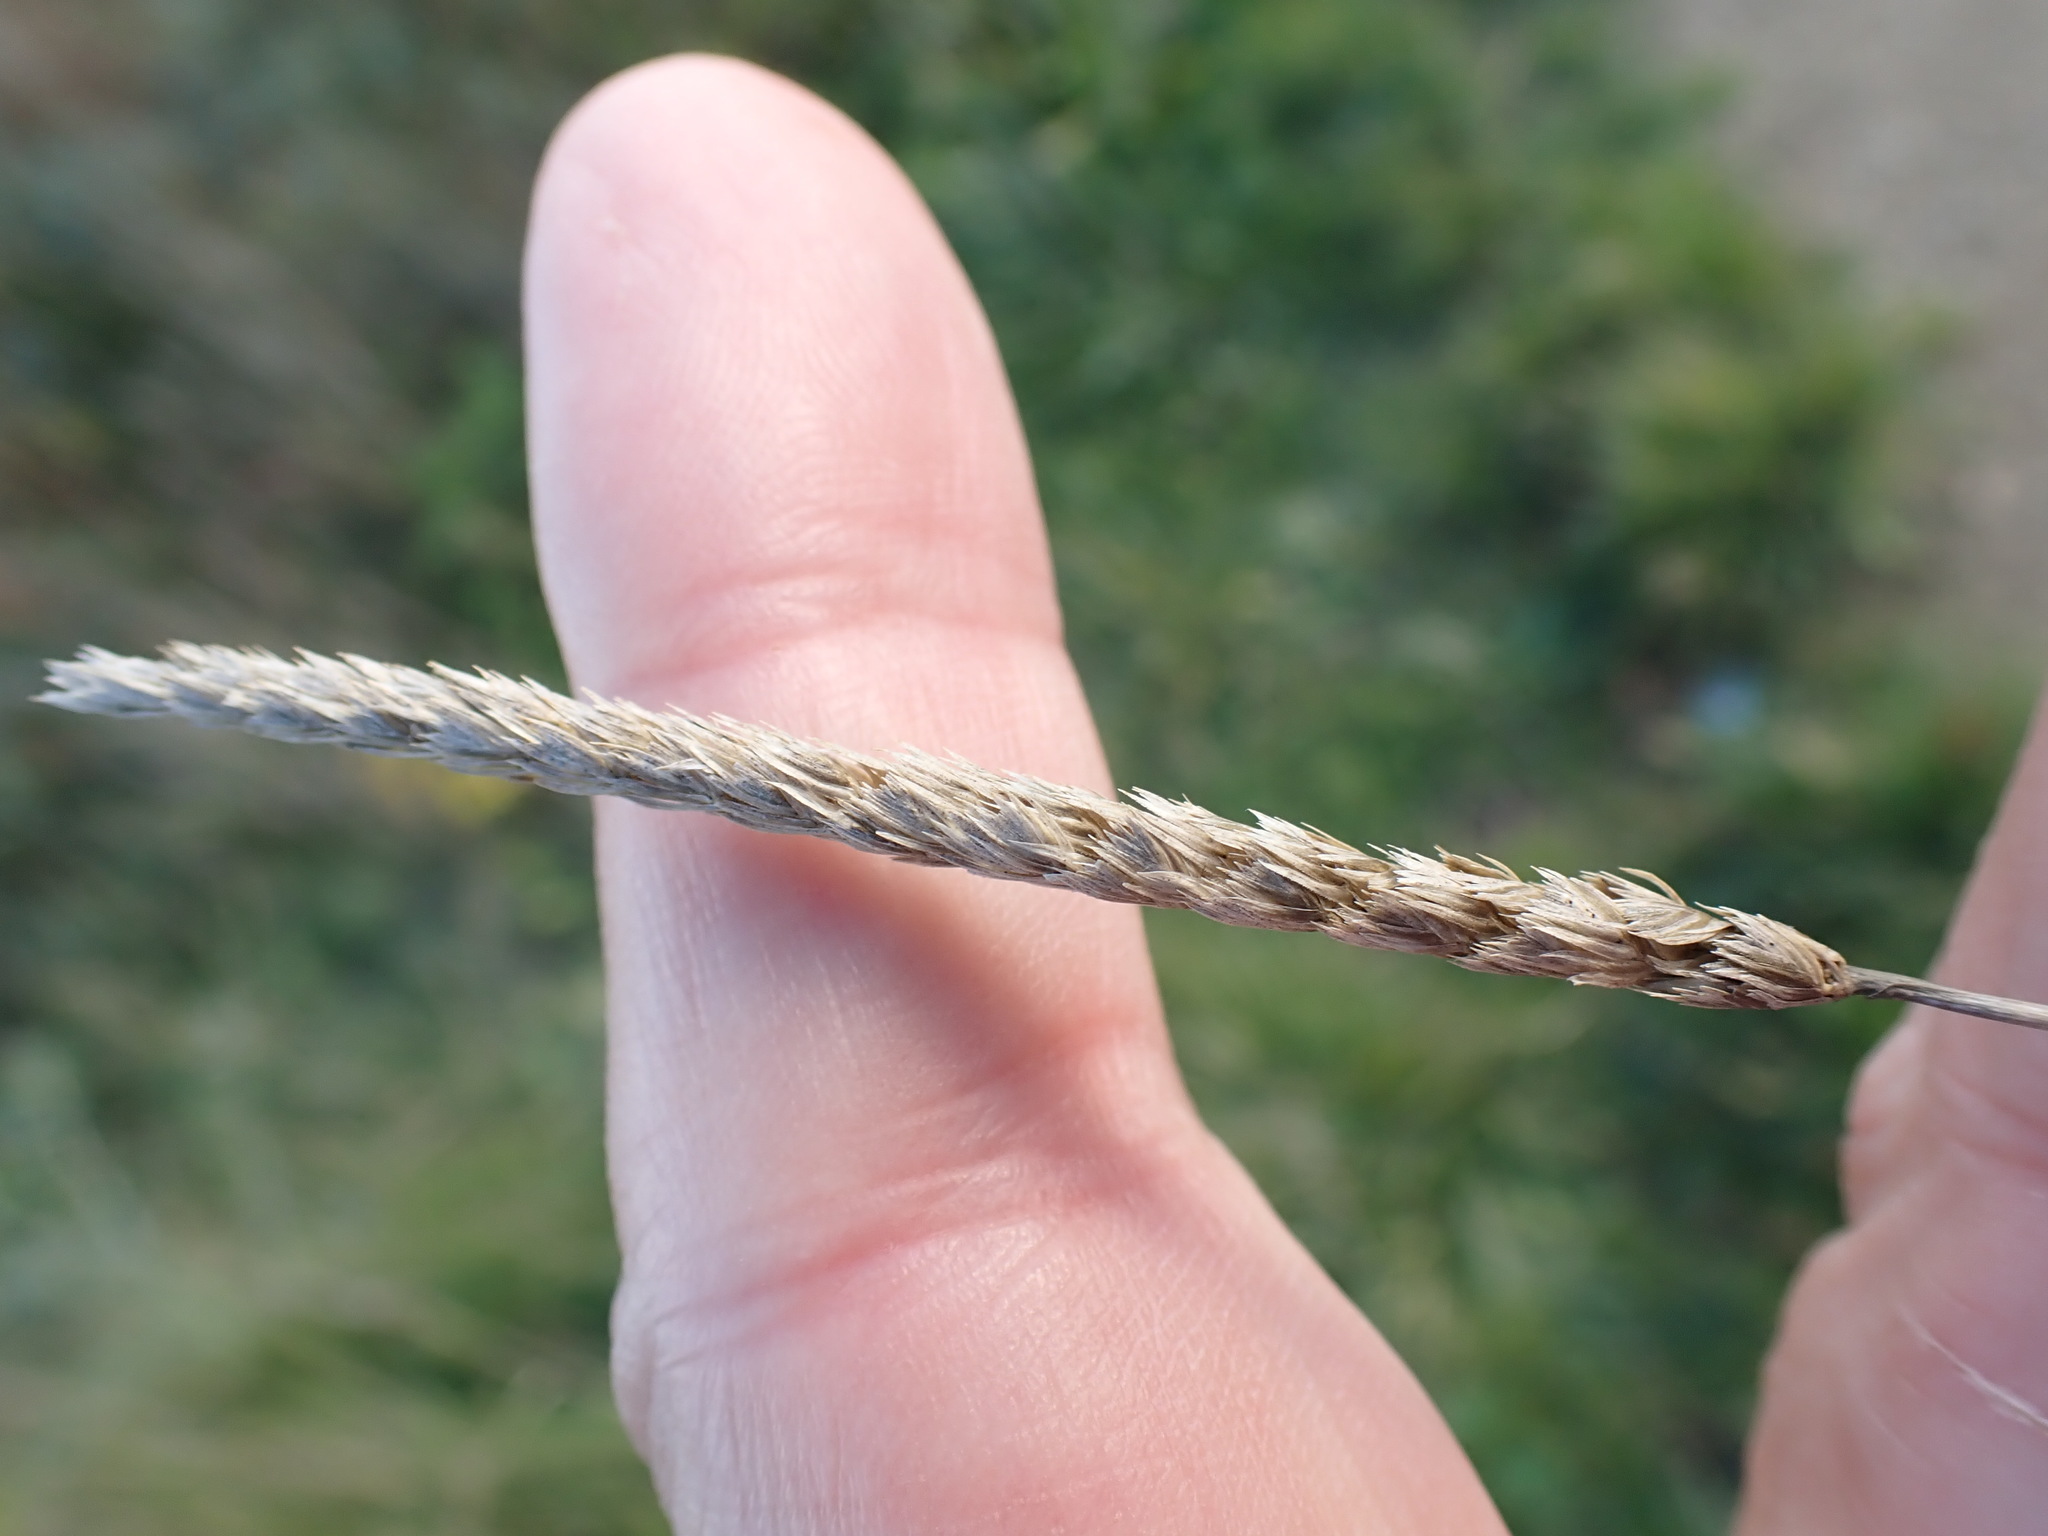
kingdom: Plantae
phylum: Tracheophyta
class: Liliopsida
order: Poales
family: Poaceae
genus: Cynosurus
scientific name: Cynosurus cristatus
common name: Crested dog's-tail
